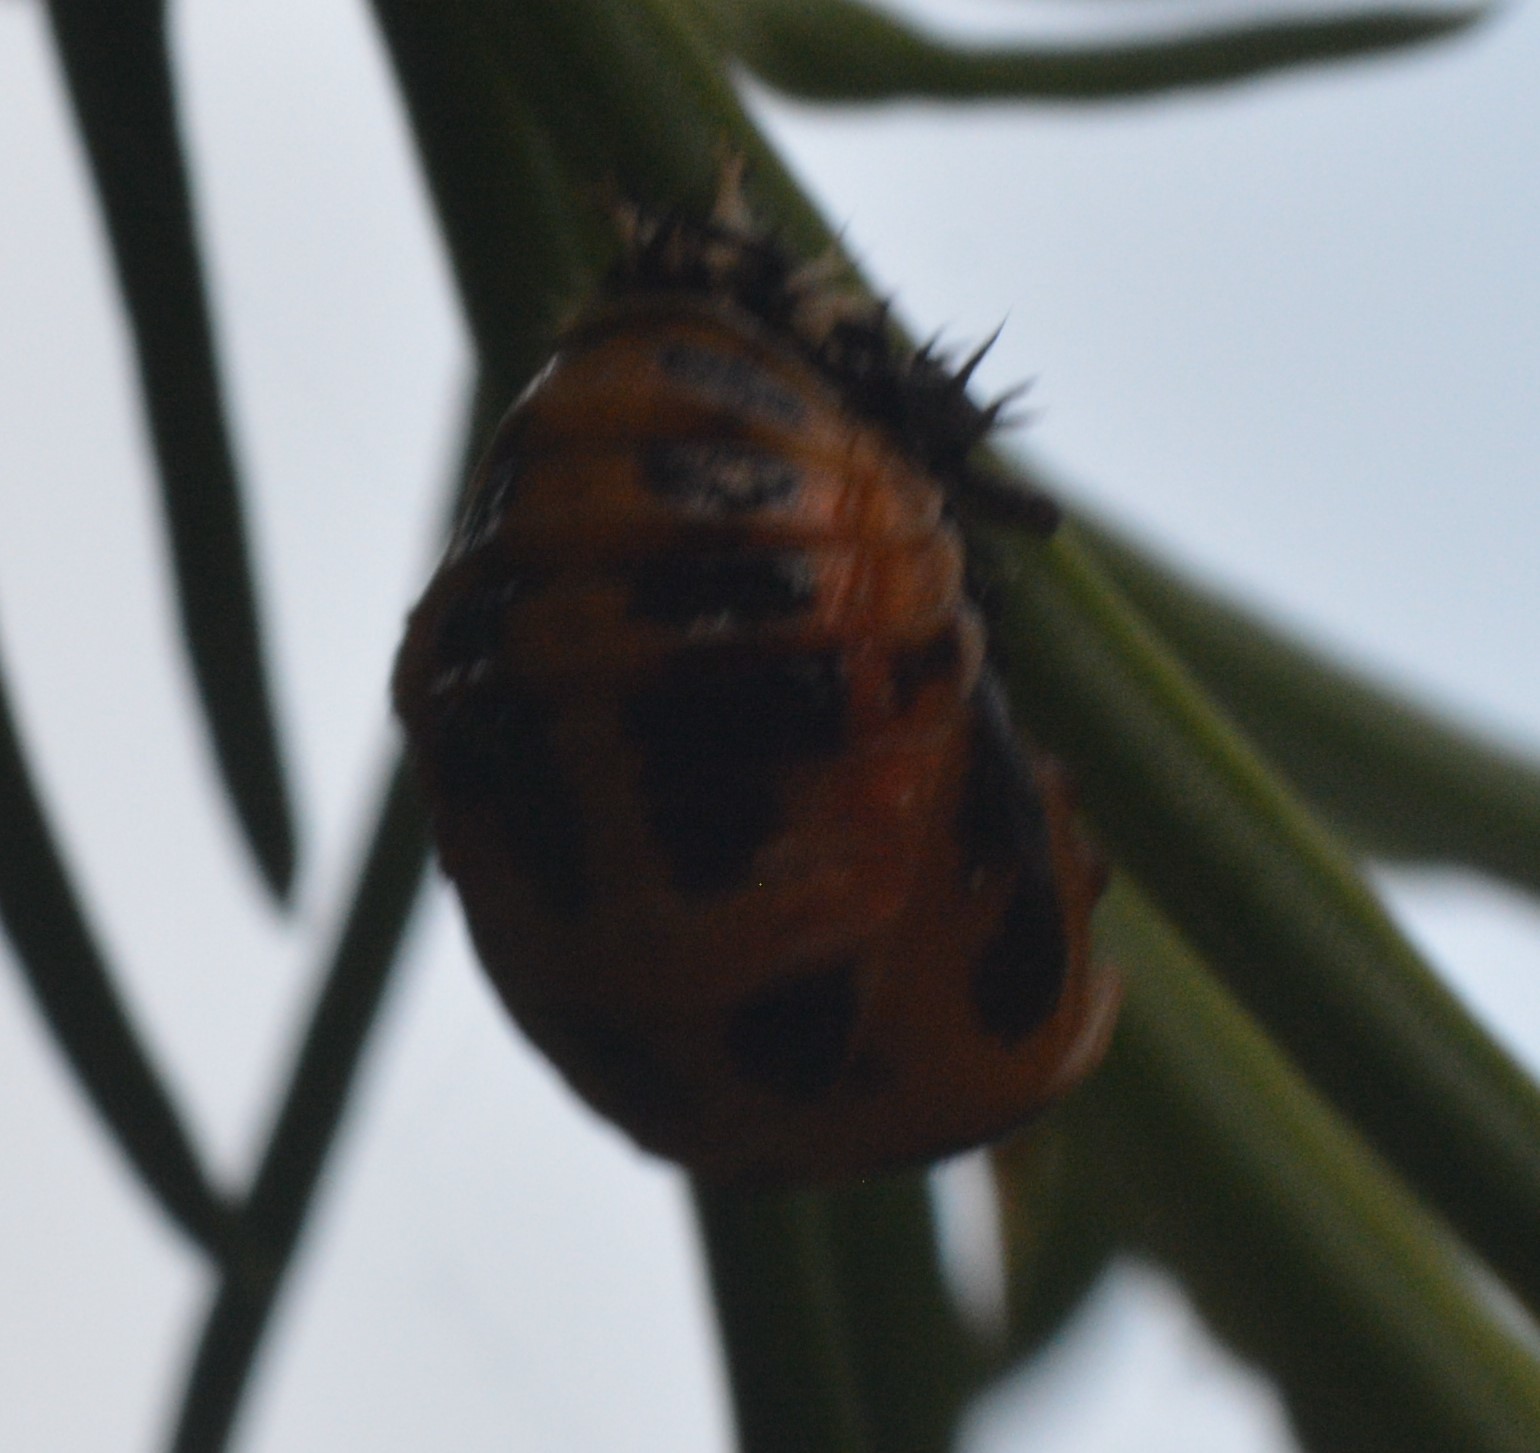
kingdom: Animalia
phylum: Arthropoda
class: Insecta
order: Coleoptera
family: Coccinellidae
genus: Harmonia
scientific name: Harmonia axyridis
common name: Harlequin ladybird
